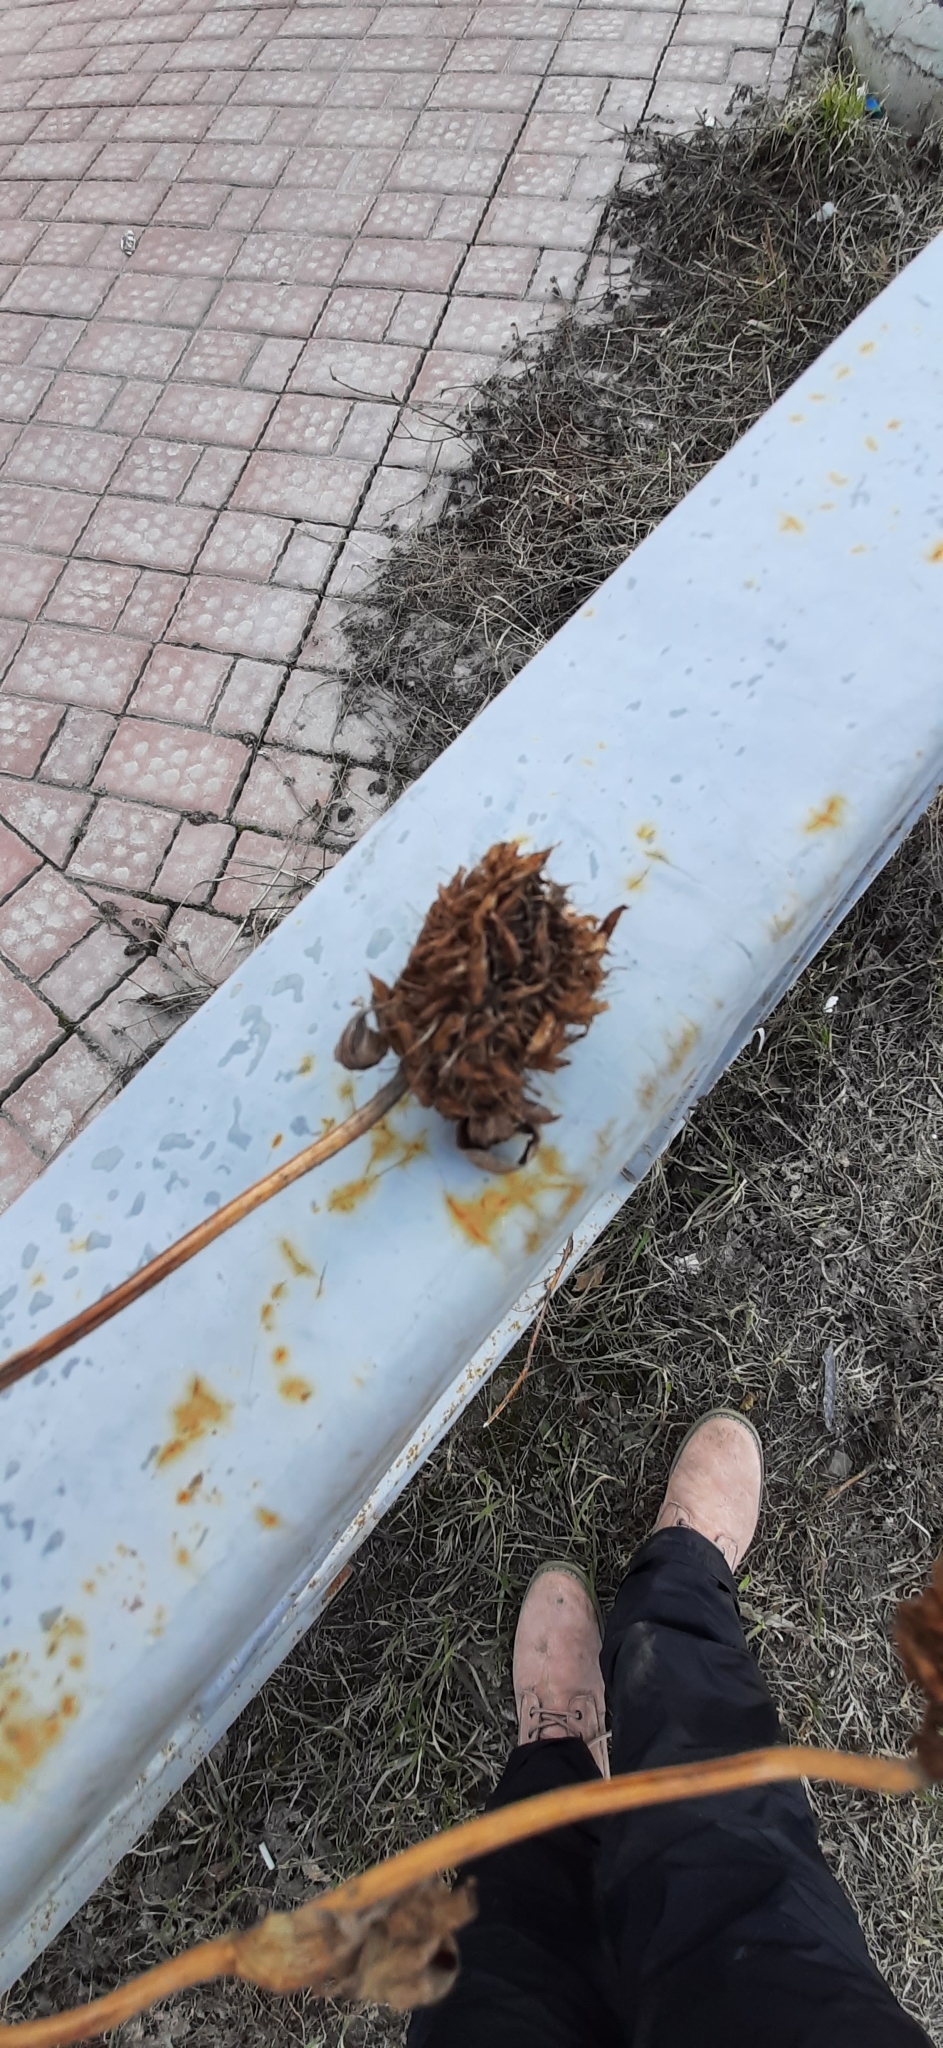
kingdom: Plantae
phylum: Tracheophyta
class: Magnoliopsida
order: Fabales
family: Fabaceae
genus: Trifolium
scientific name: Trifolium pratense
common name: Red clover
